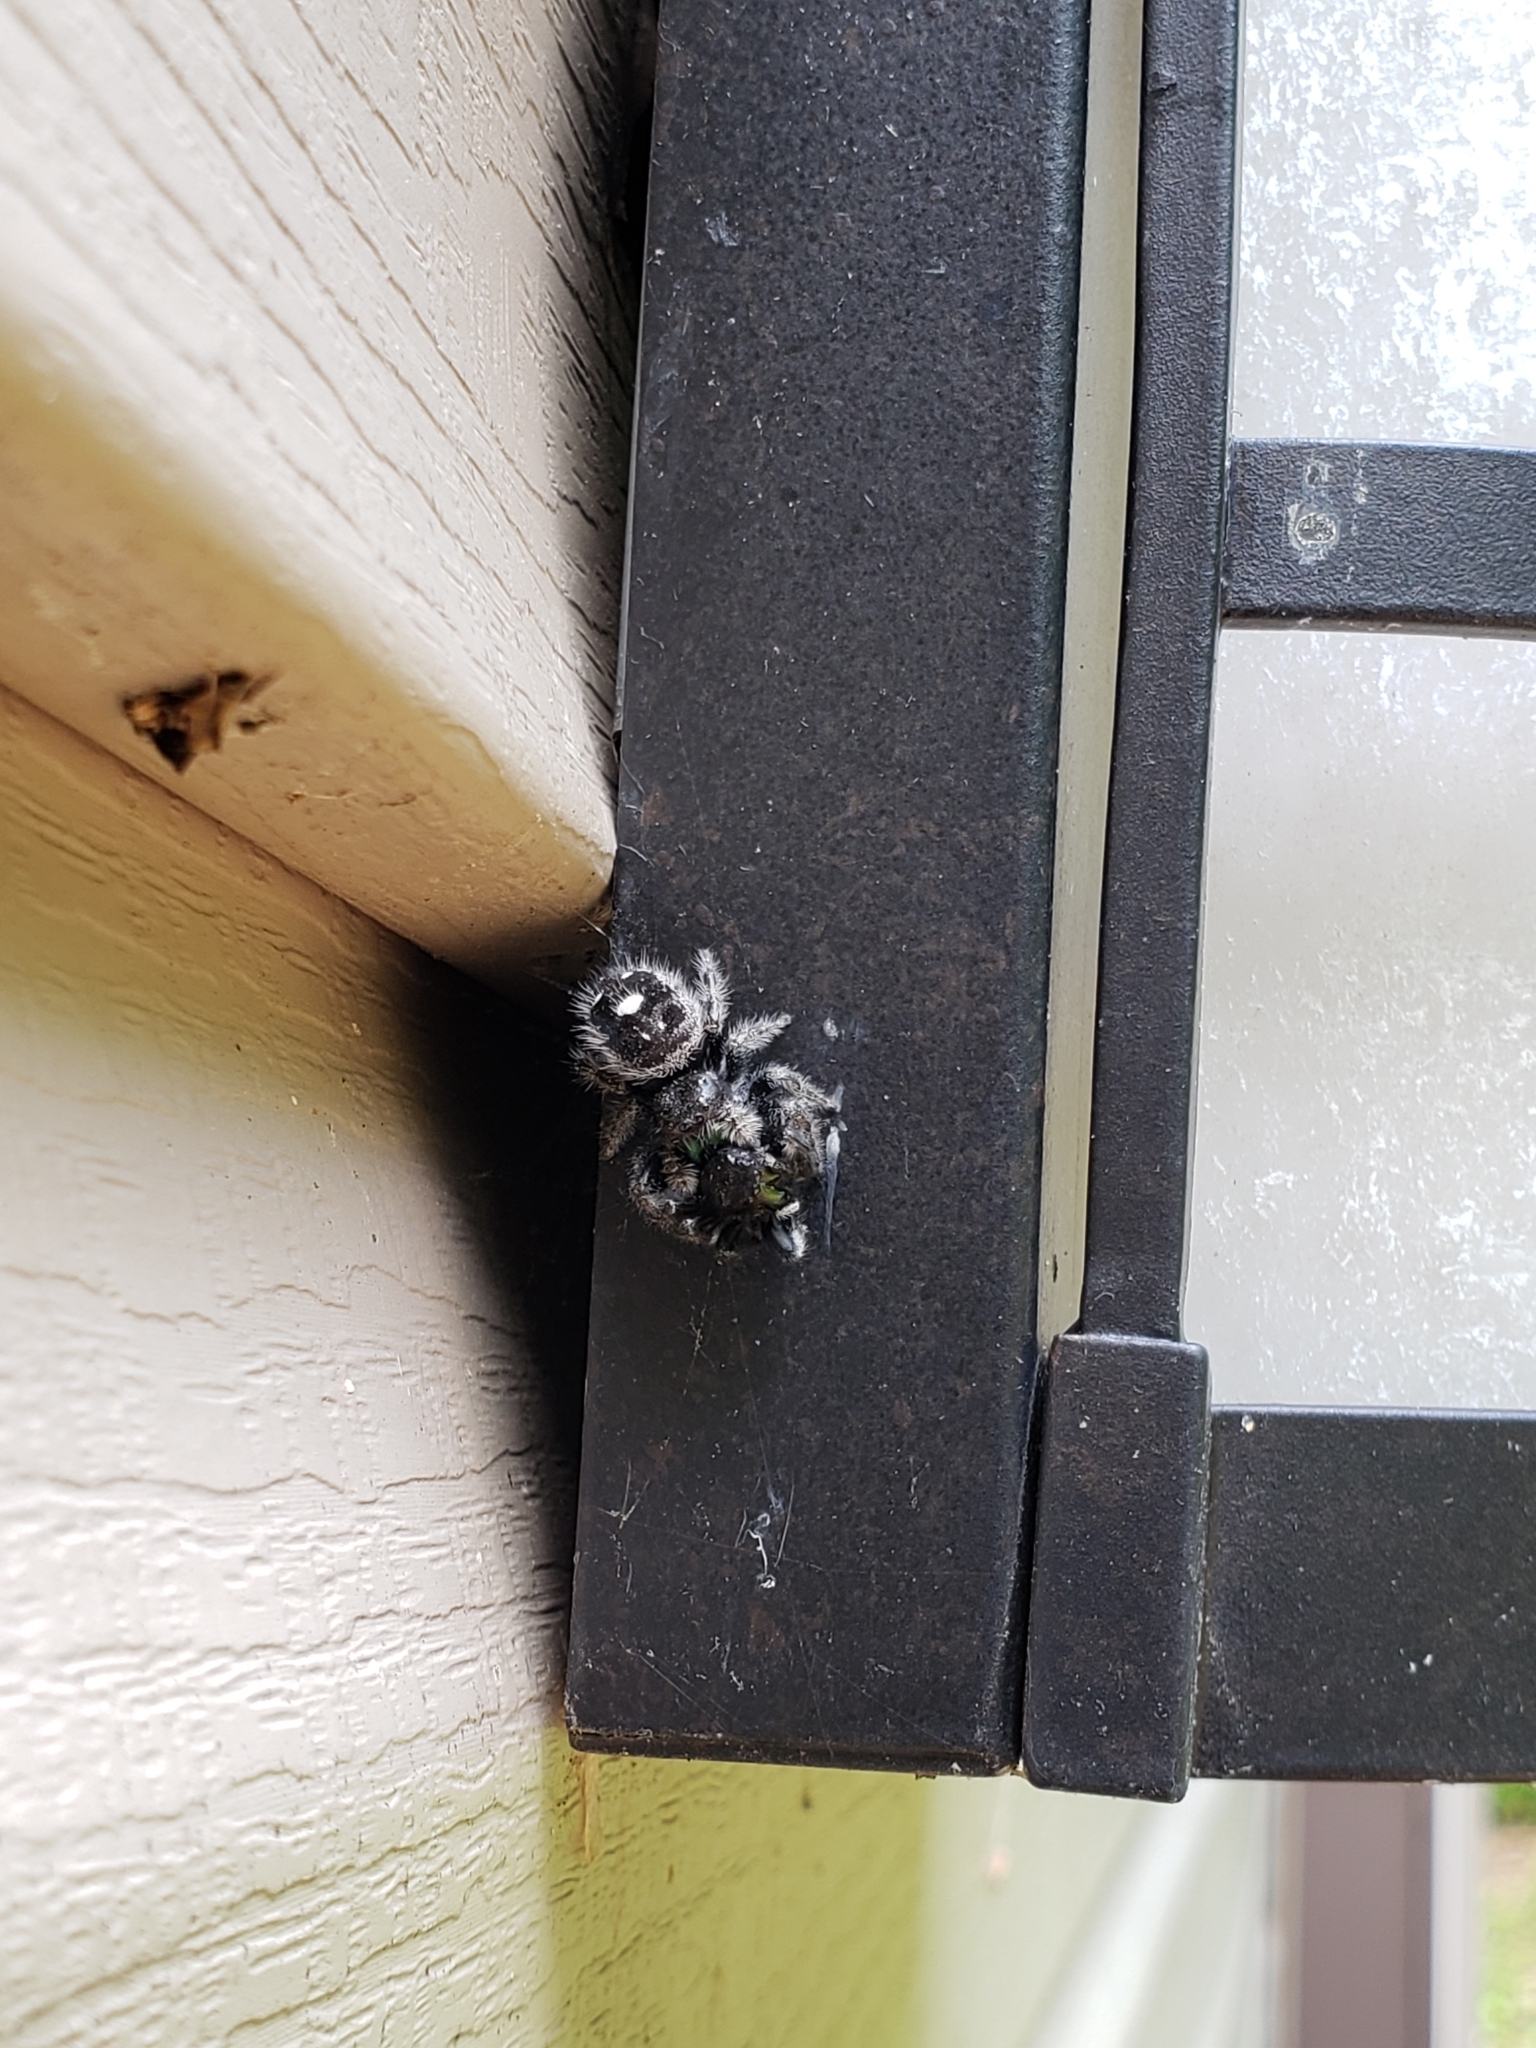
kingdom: Animalia
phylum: Arthropoda
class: Arachnida
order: Araneae
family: Salticidae
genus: Phidippus
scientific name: Phidippus audax
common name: Bold jumper
